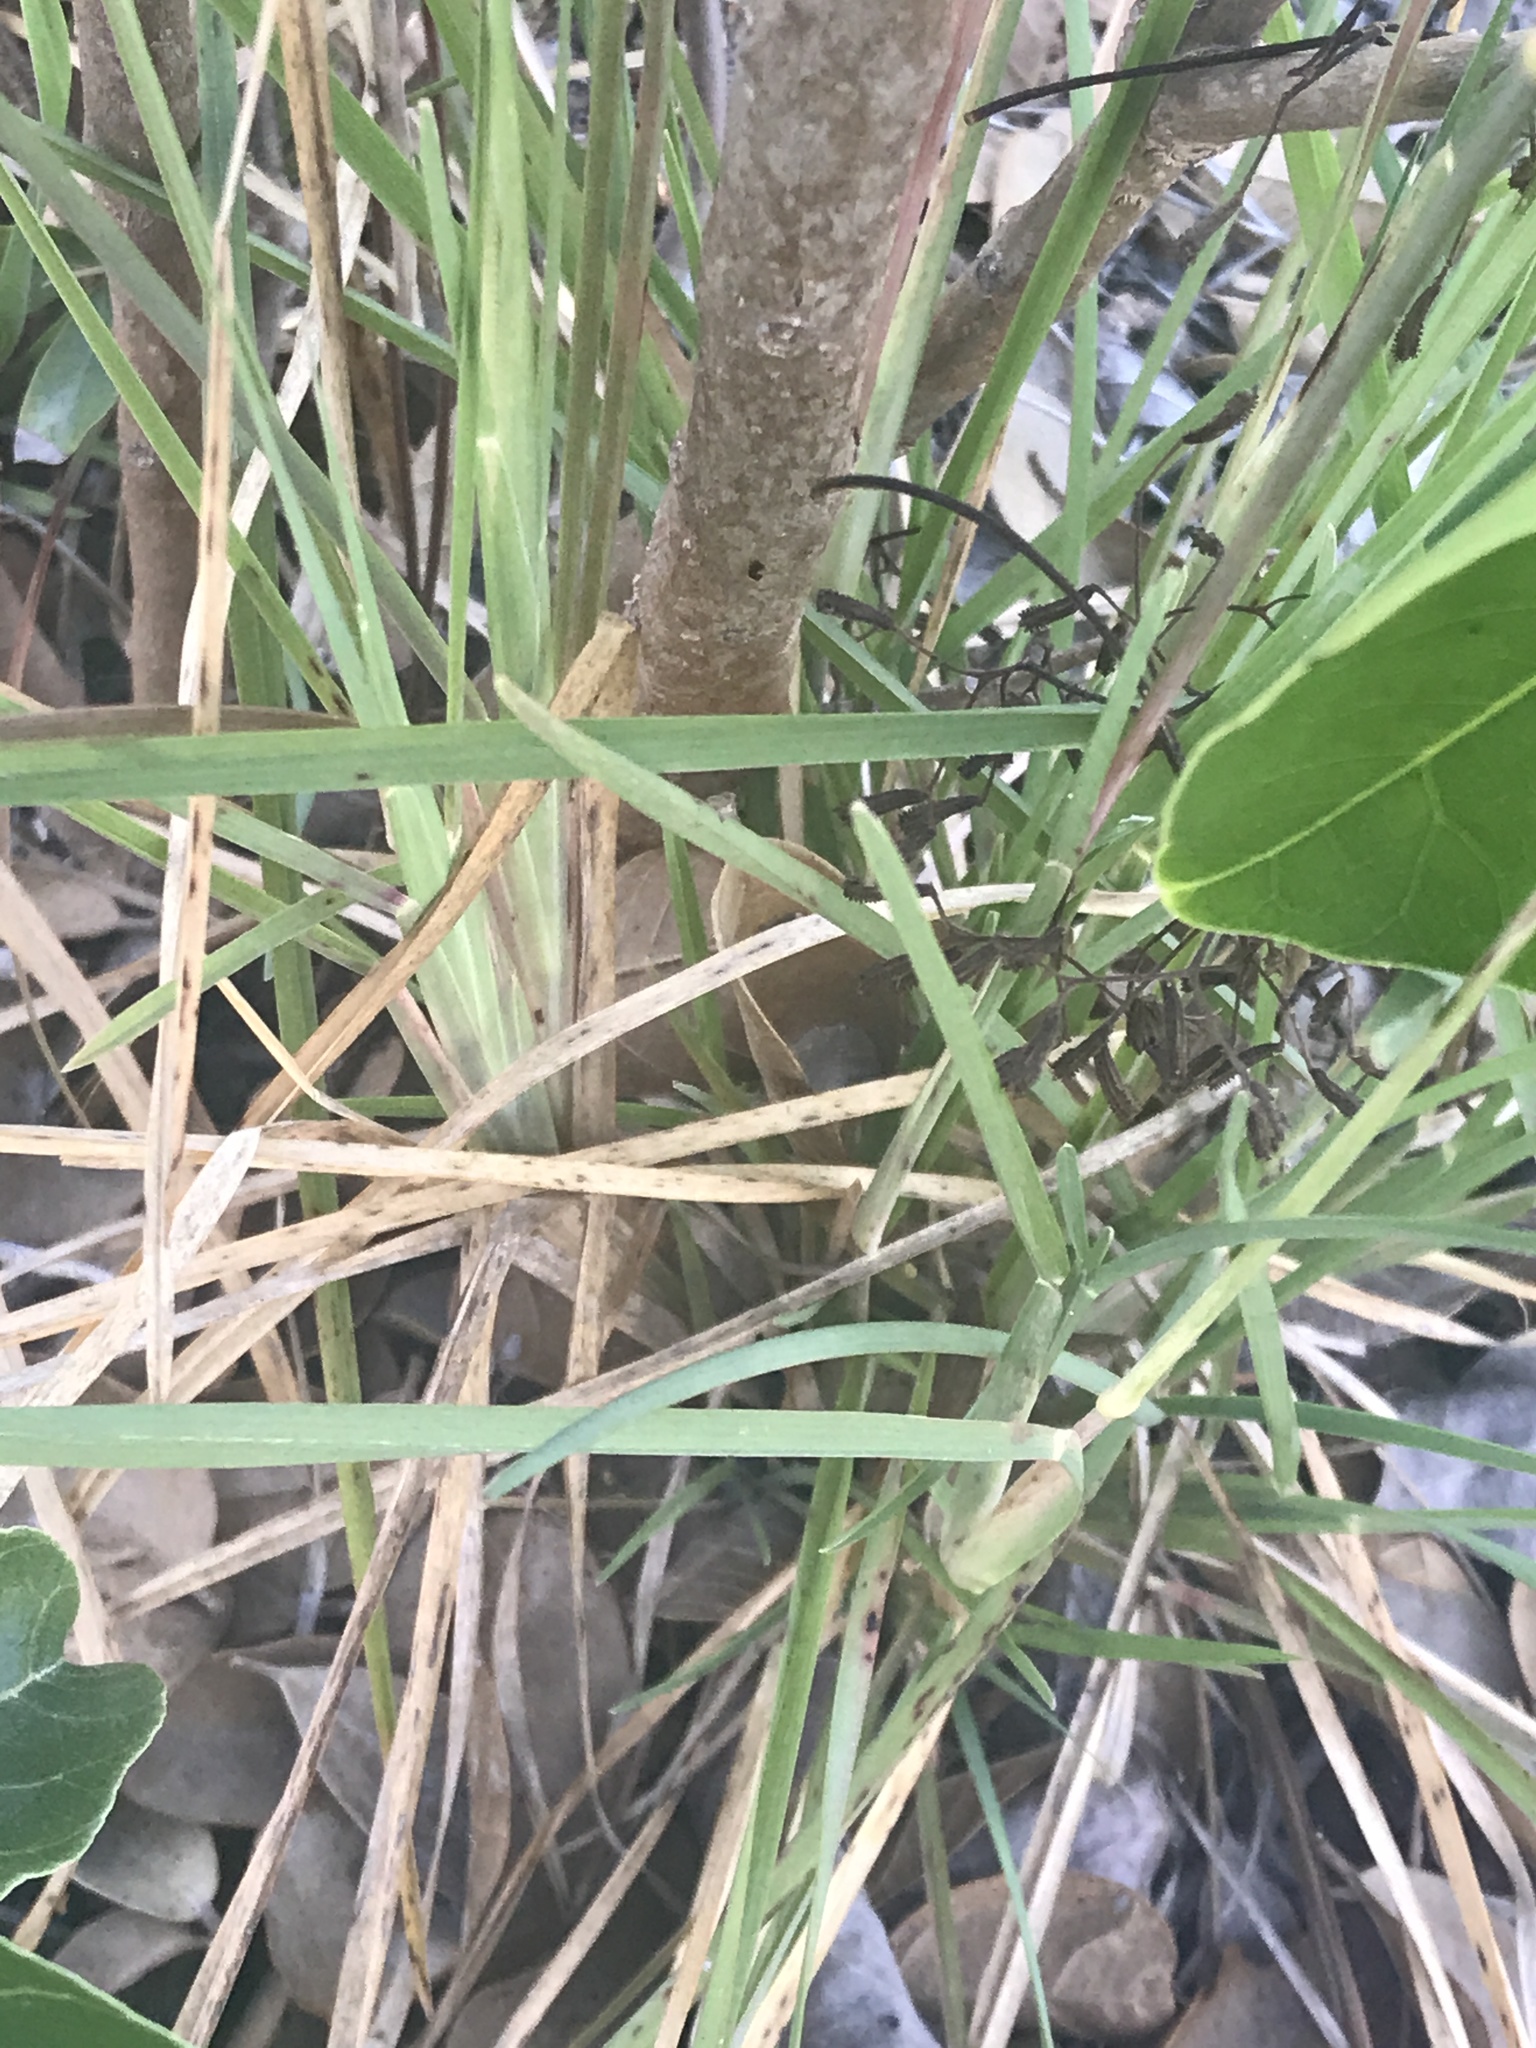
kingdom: Plantae
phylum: Tracheophyta
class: Liliopsida
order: Poales
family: Poaceae
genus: Eustachys
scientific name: Eustachys petraea
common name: Pinewoods fingergrass
